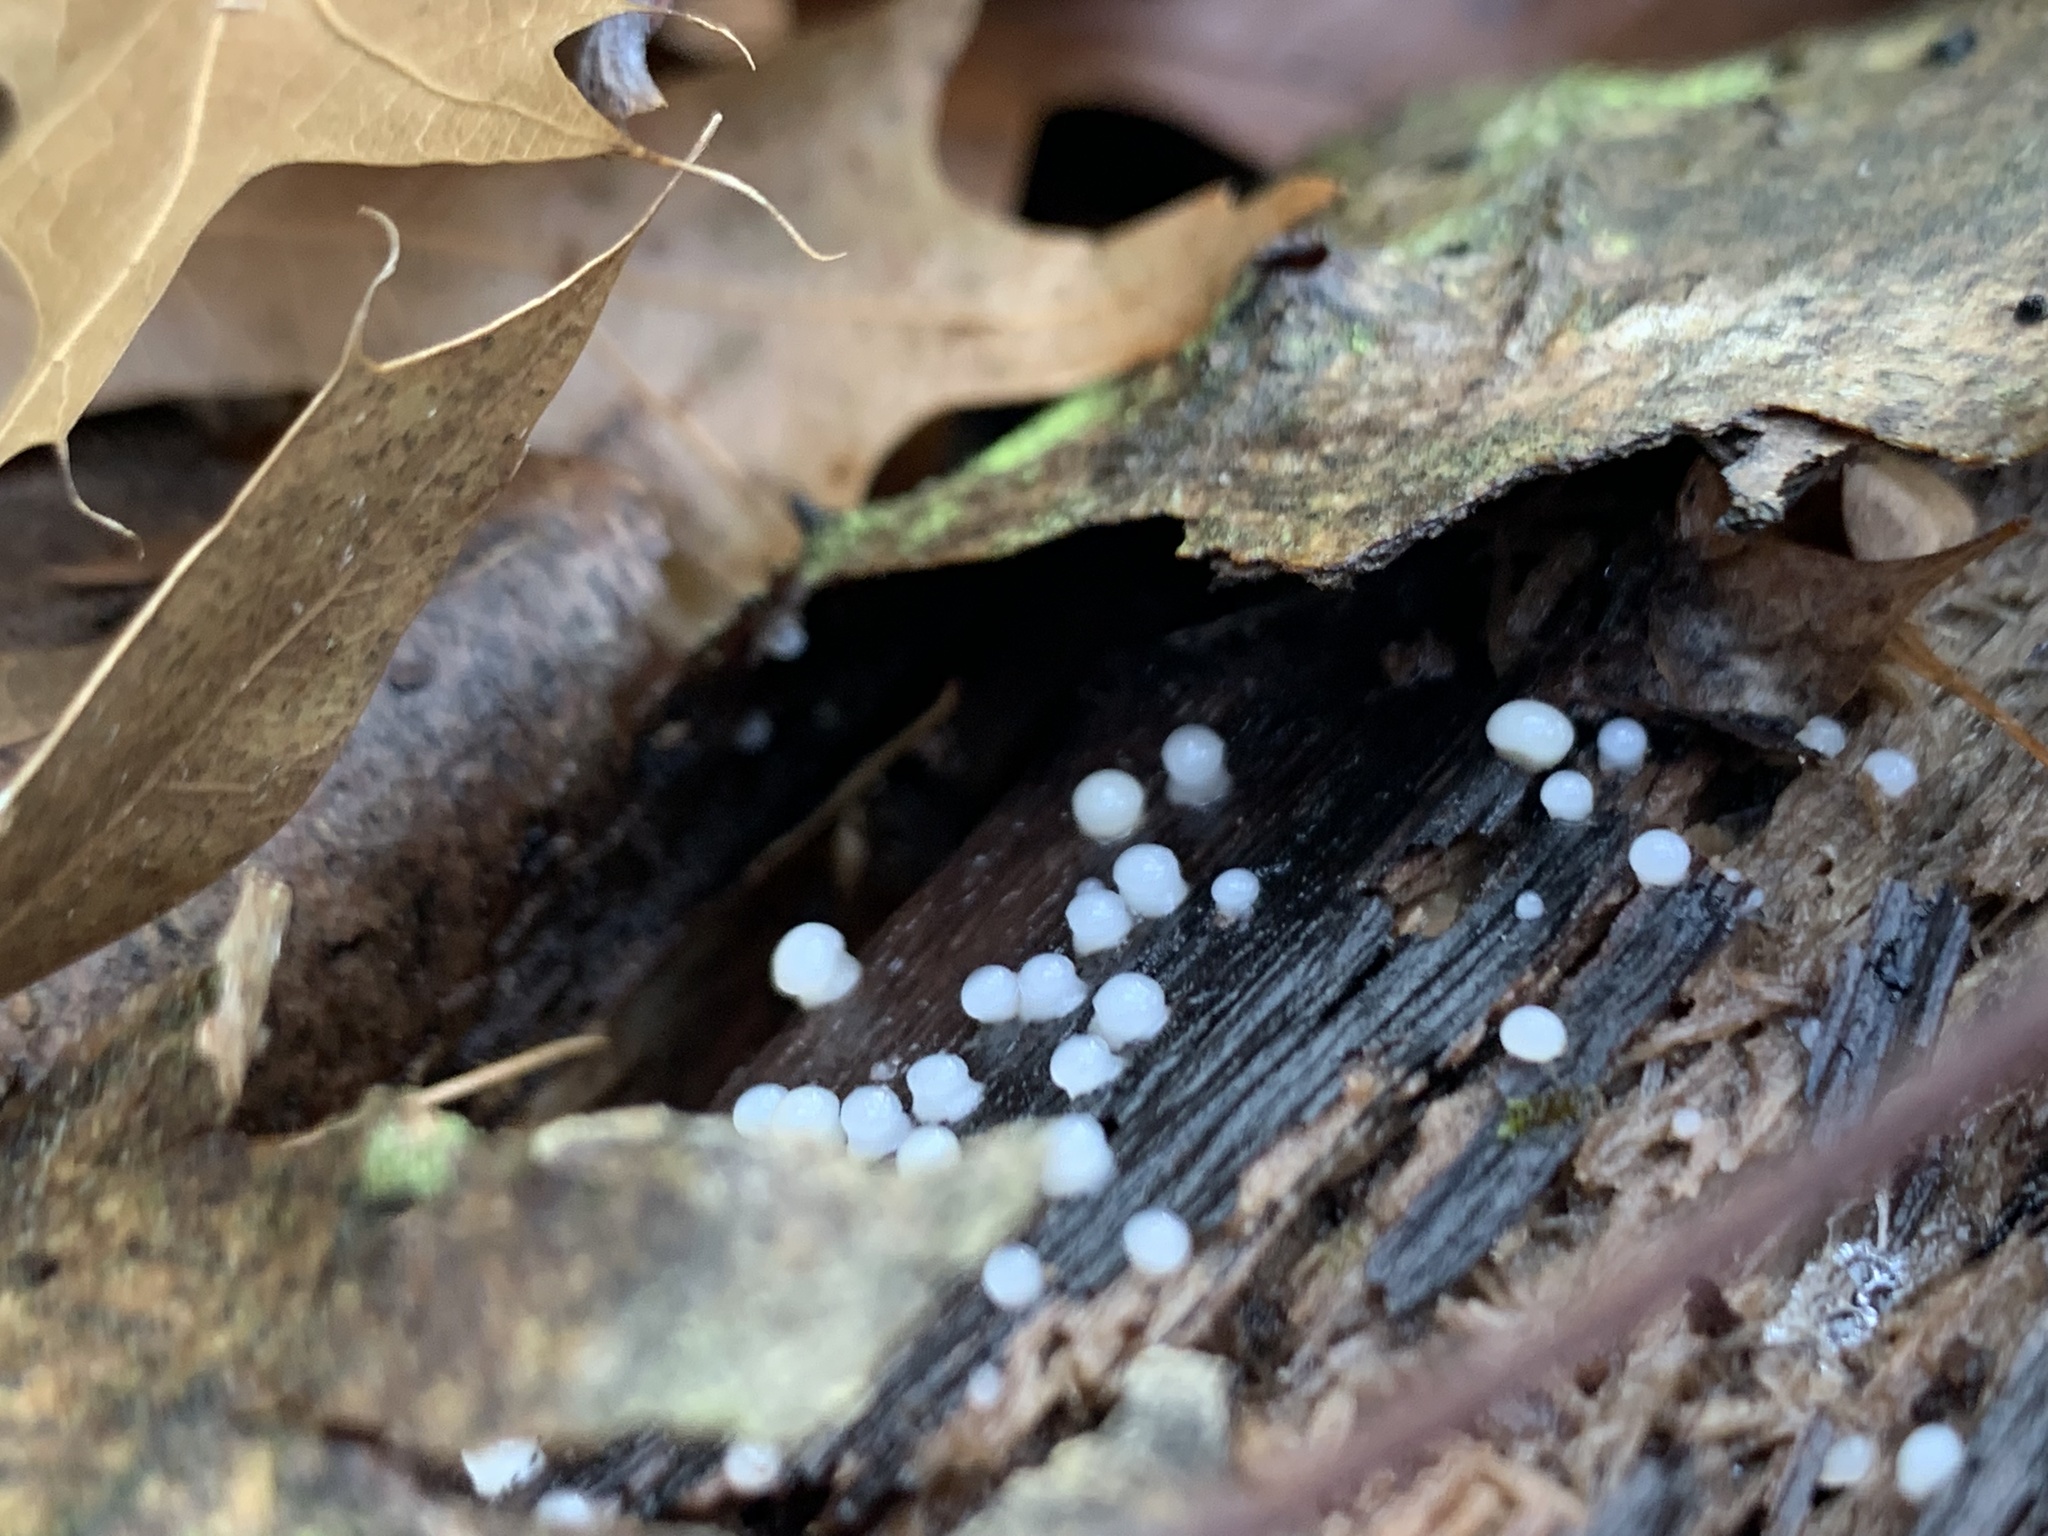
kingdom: Fungi
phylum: Basidiomycota
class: Atractiellomycetes
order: Atractiellales
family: Phleogenaceae
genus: Helicogloea
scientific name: Helicogloea compressa
